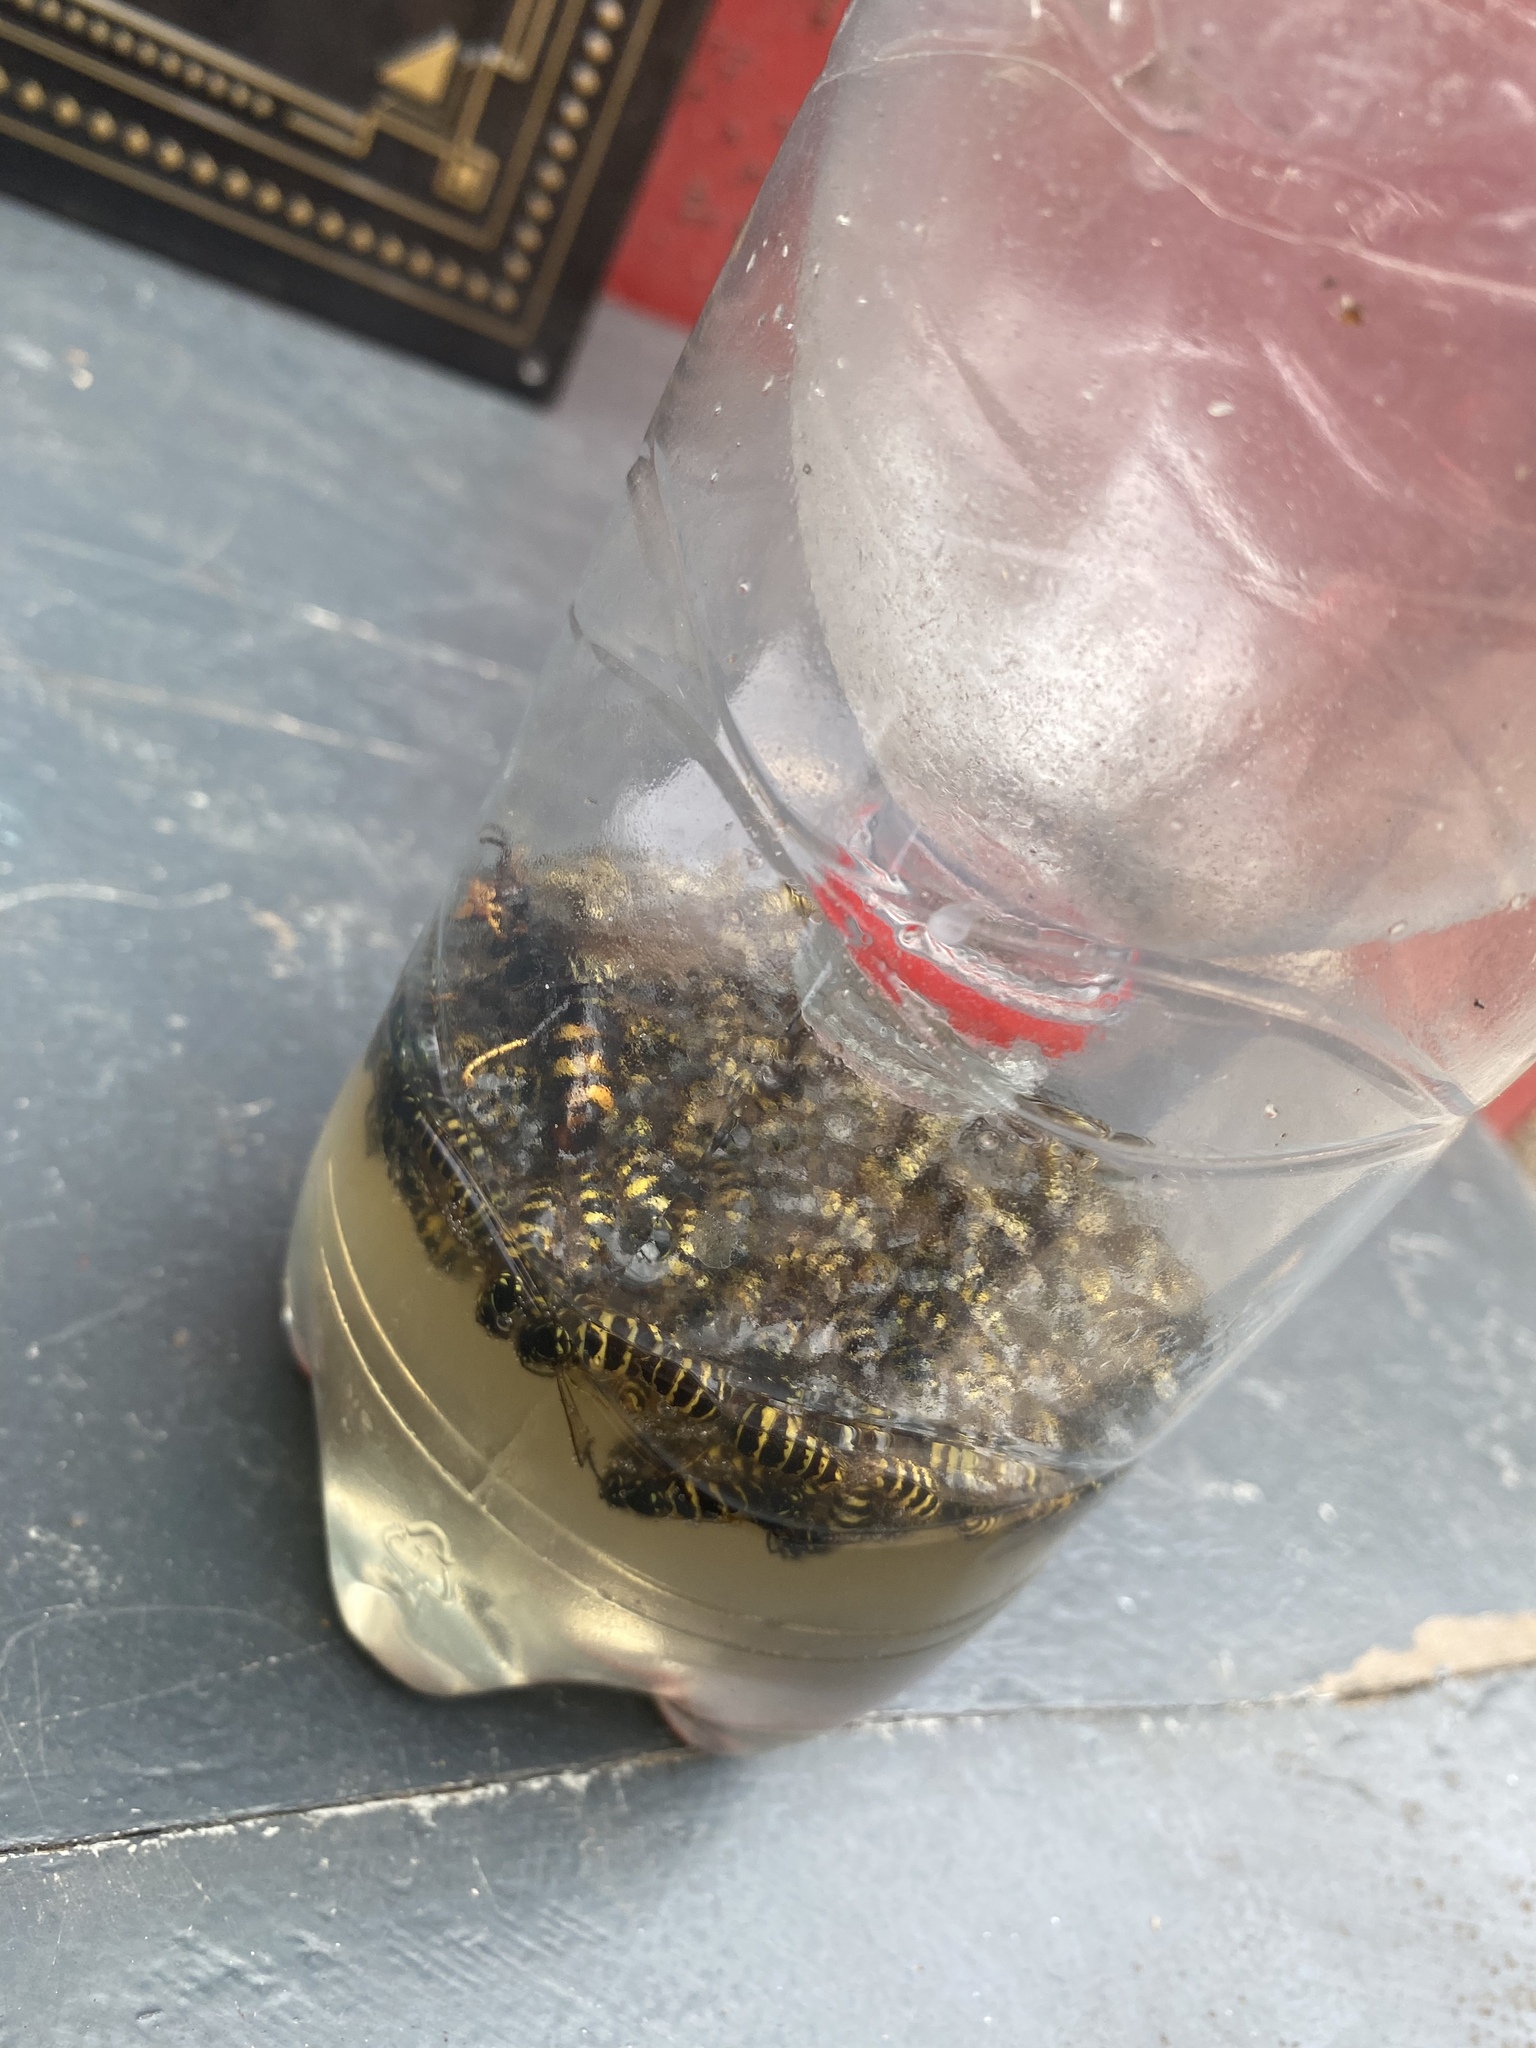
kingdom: Animalia
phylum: Arthropoda
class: Insecta
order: Hymenoptera
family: Vespidae
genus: Vespa
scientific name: Vespa velutina
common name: Asian hornet
